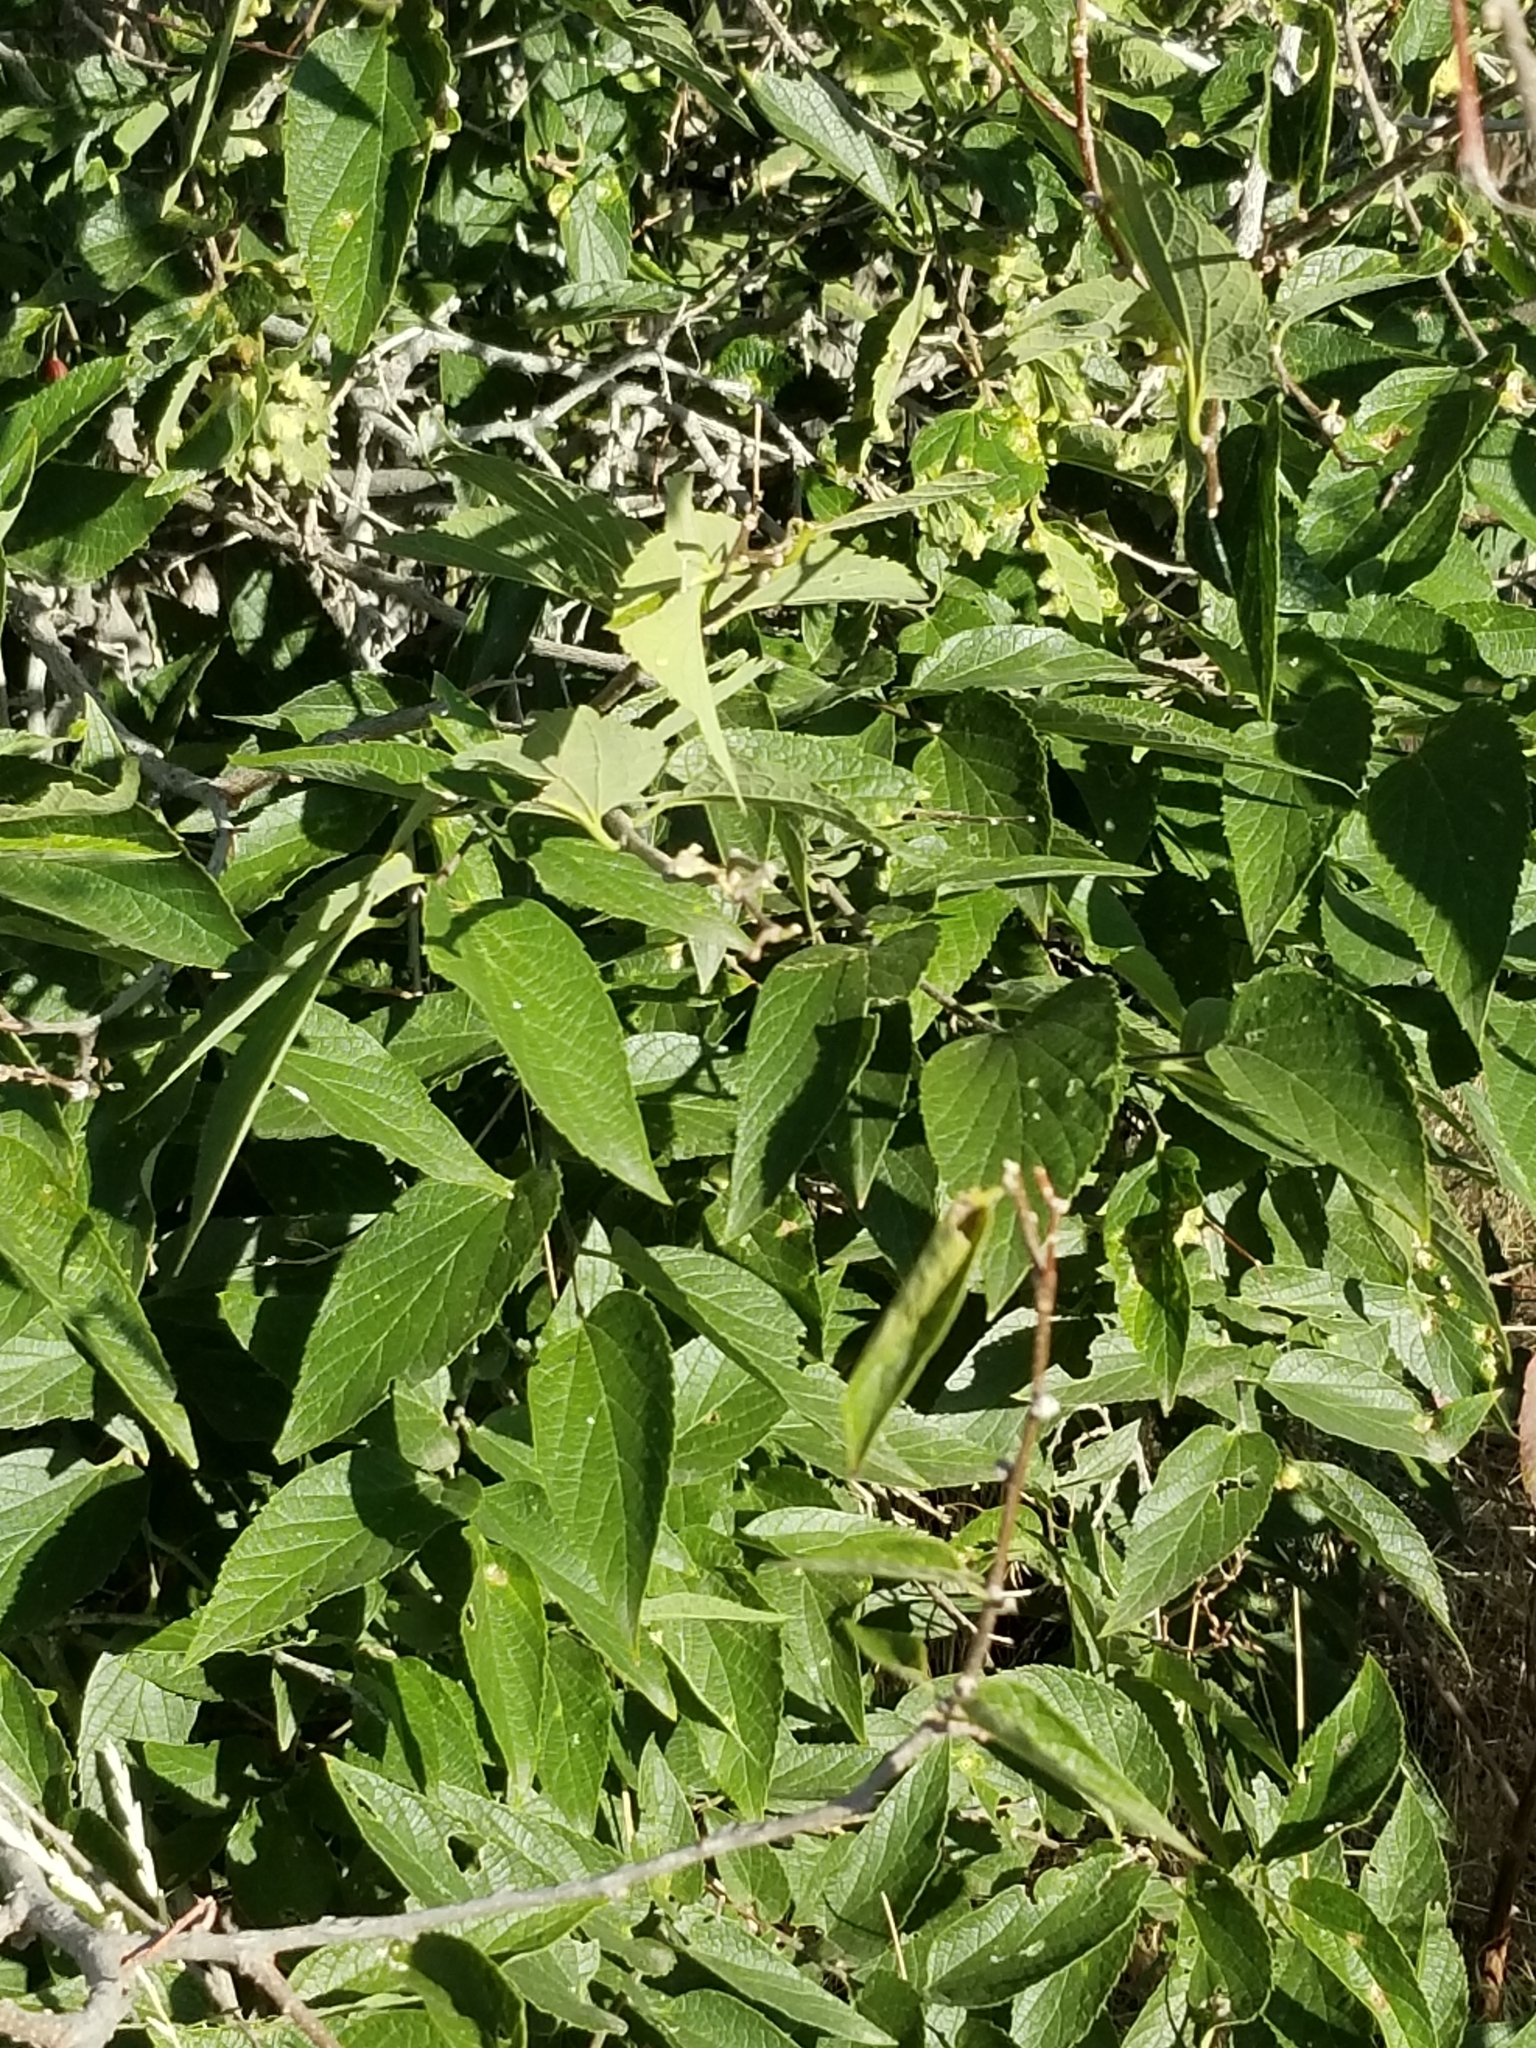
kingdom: Animalia
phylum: Arthropoda
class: Insecta
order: Hemiptera
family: Aphalaridae
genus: Pachypsylla
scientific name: Pachypsylla celtidismamma
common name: Hackberry nipplegall psyllid
